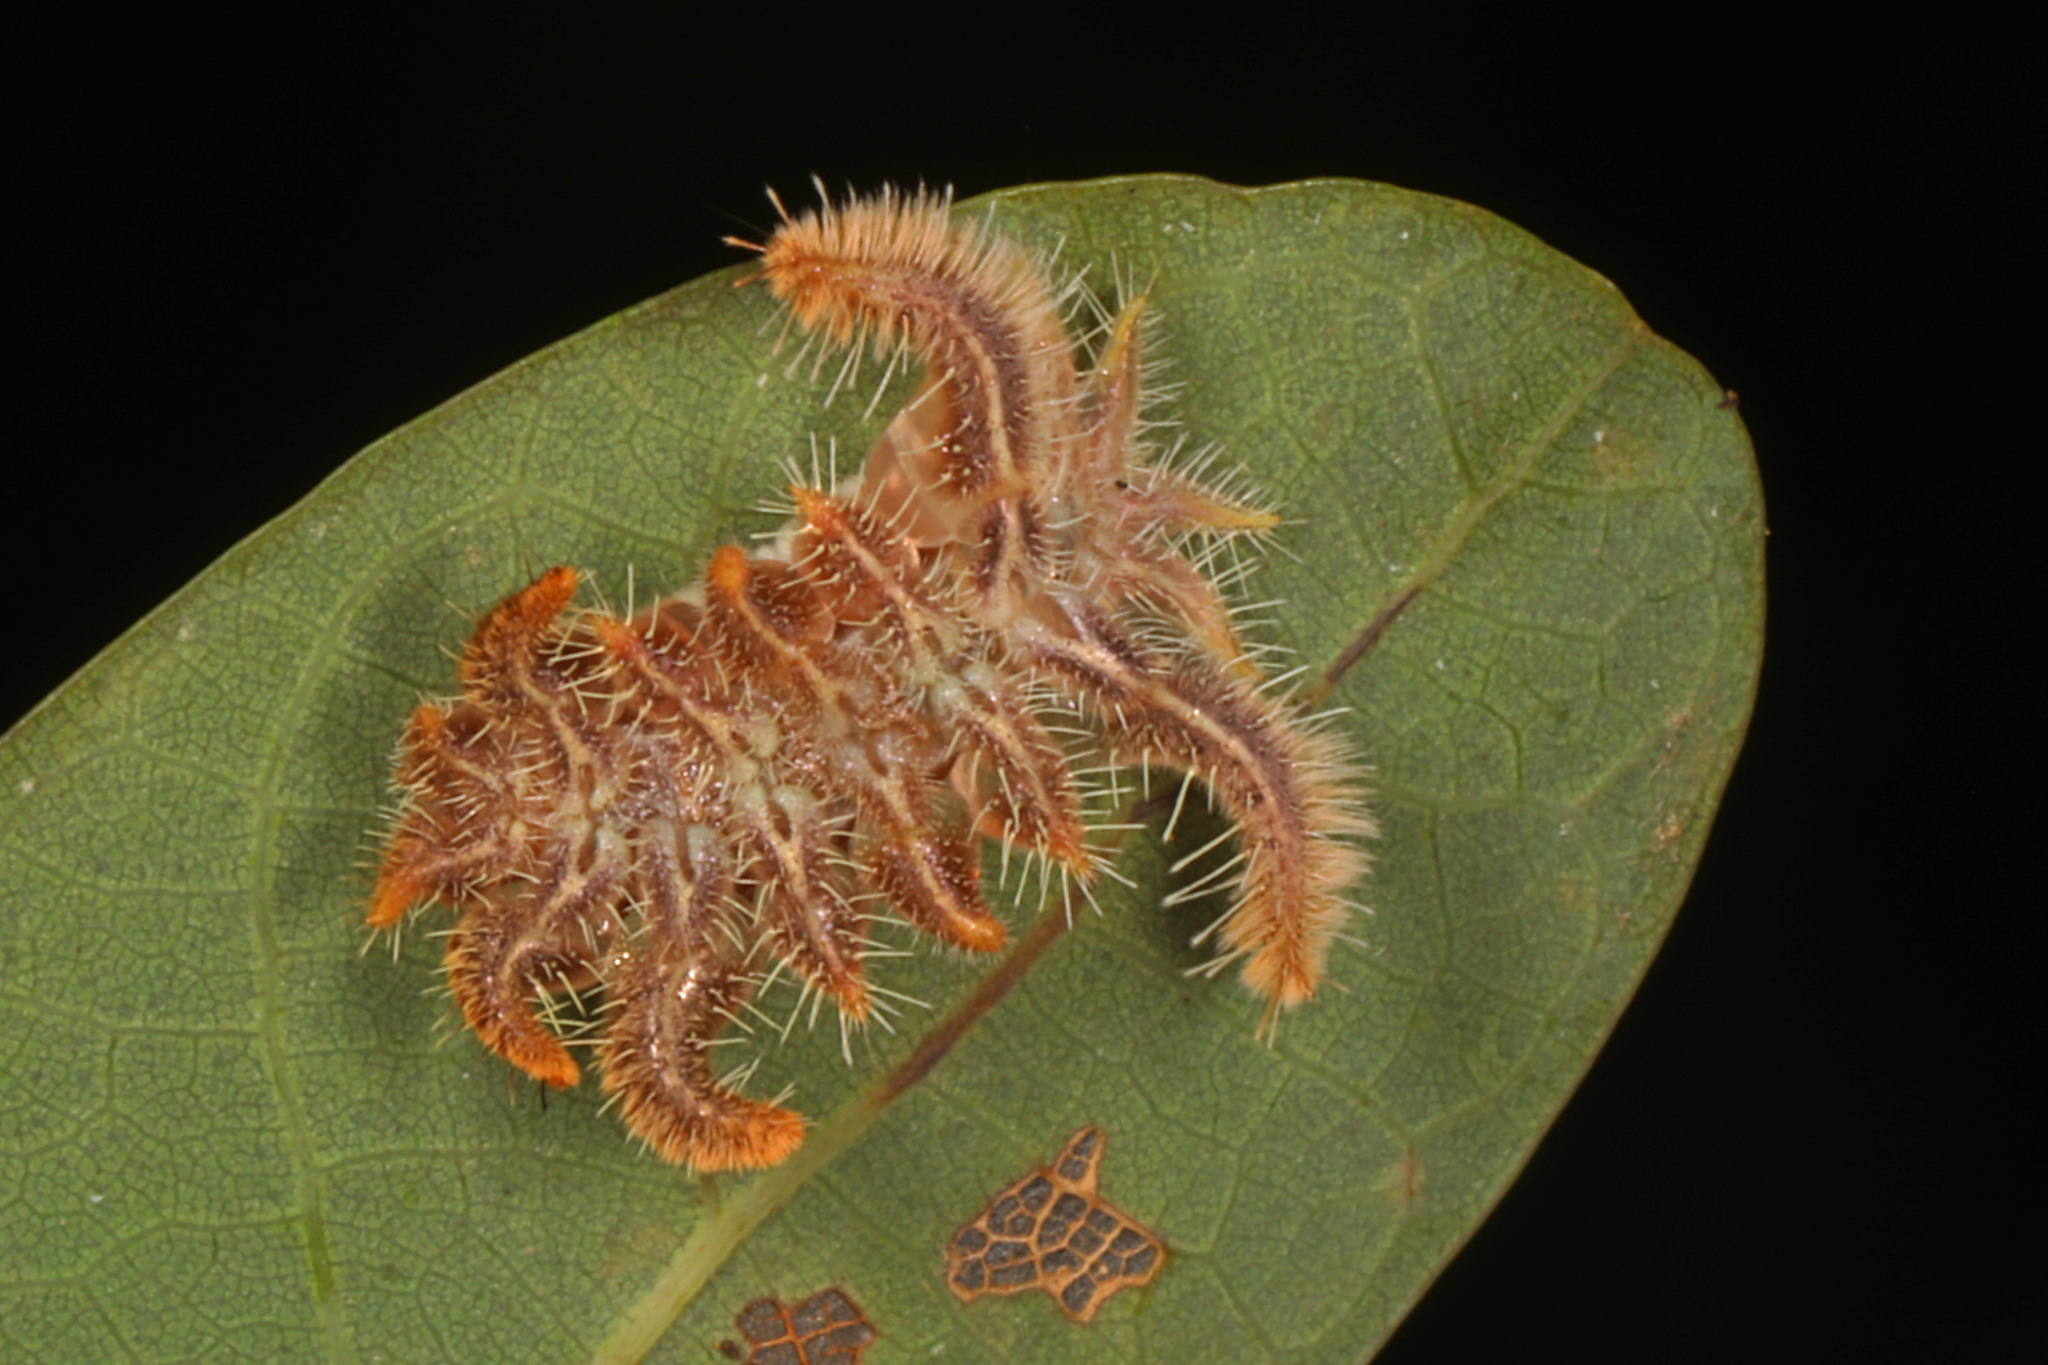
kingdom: Animalia
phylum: Arthropoda
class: Insecta
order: Lepidoptera
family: Limacodidae
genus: Phobetron
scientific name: Phobetron pithecium
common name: Hag moth
